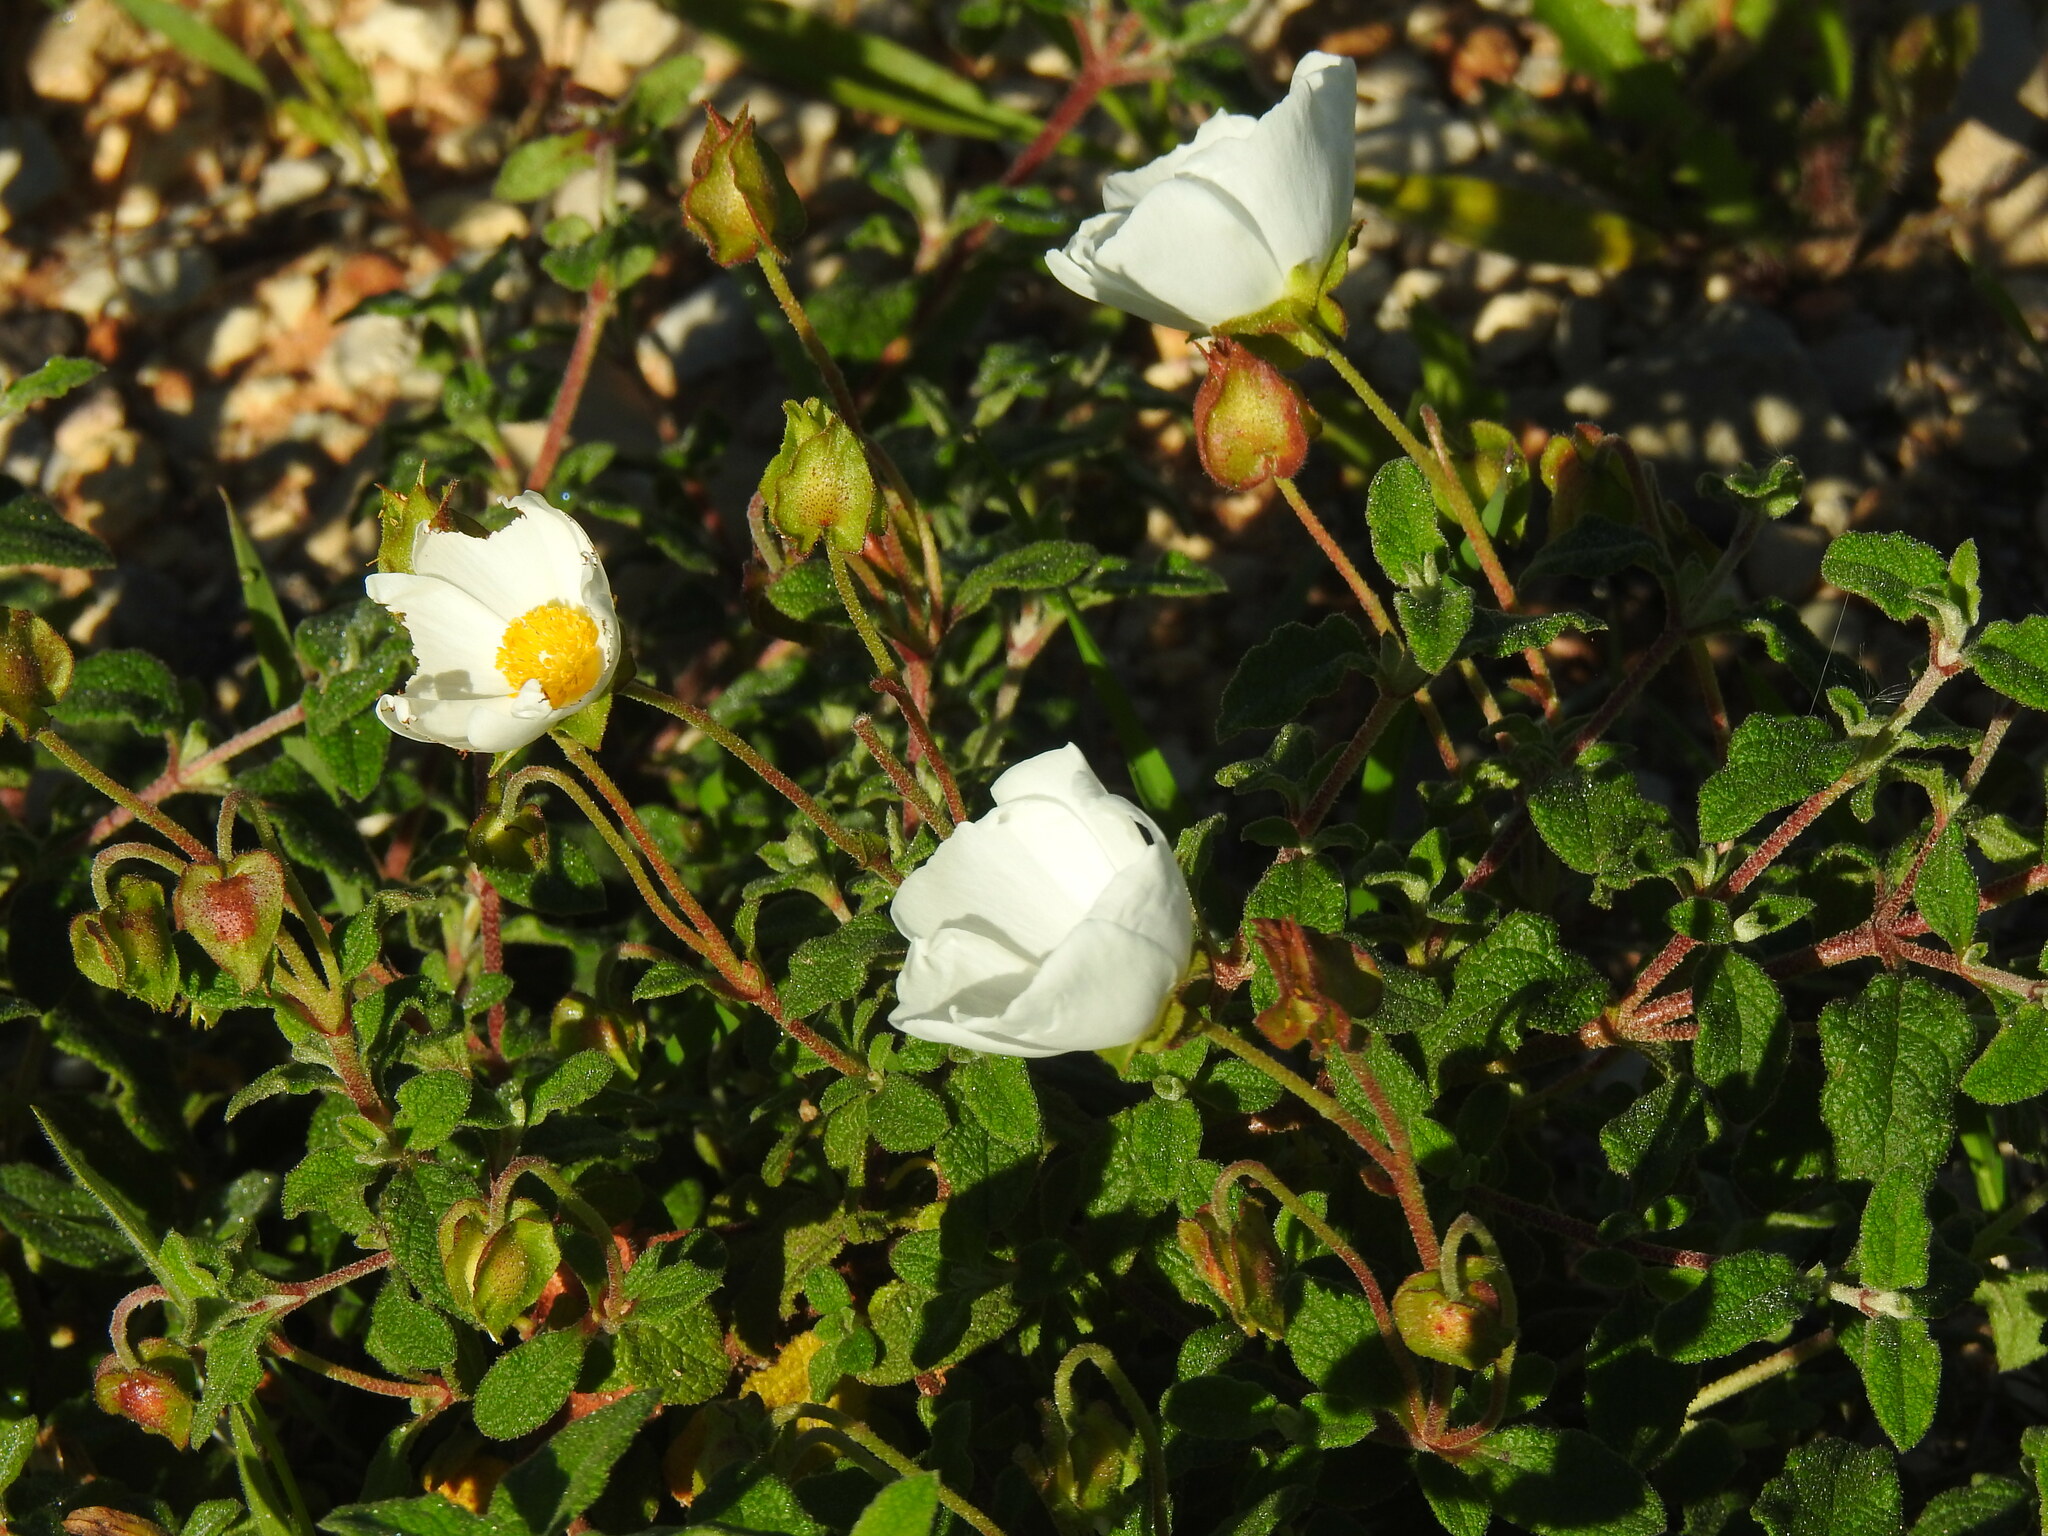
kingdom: Plantae
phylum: Tracheophyta
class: Magnoliopsida
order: Malvales
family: Cistaceae
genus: Cistus
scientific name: Cistus salviifolius
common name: Salvia cistus
